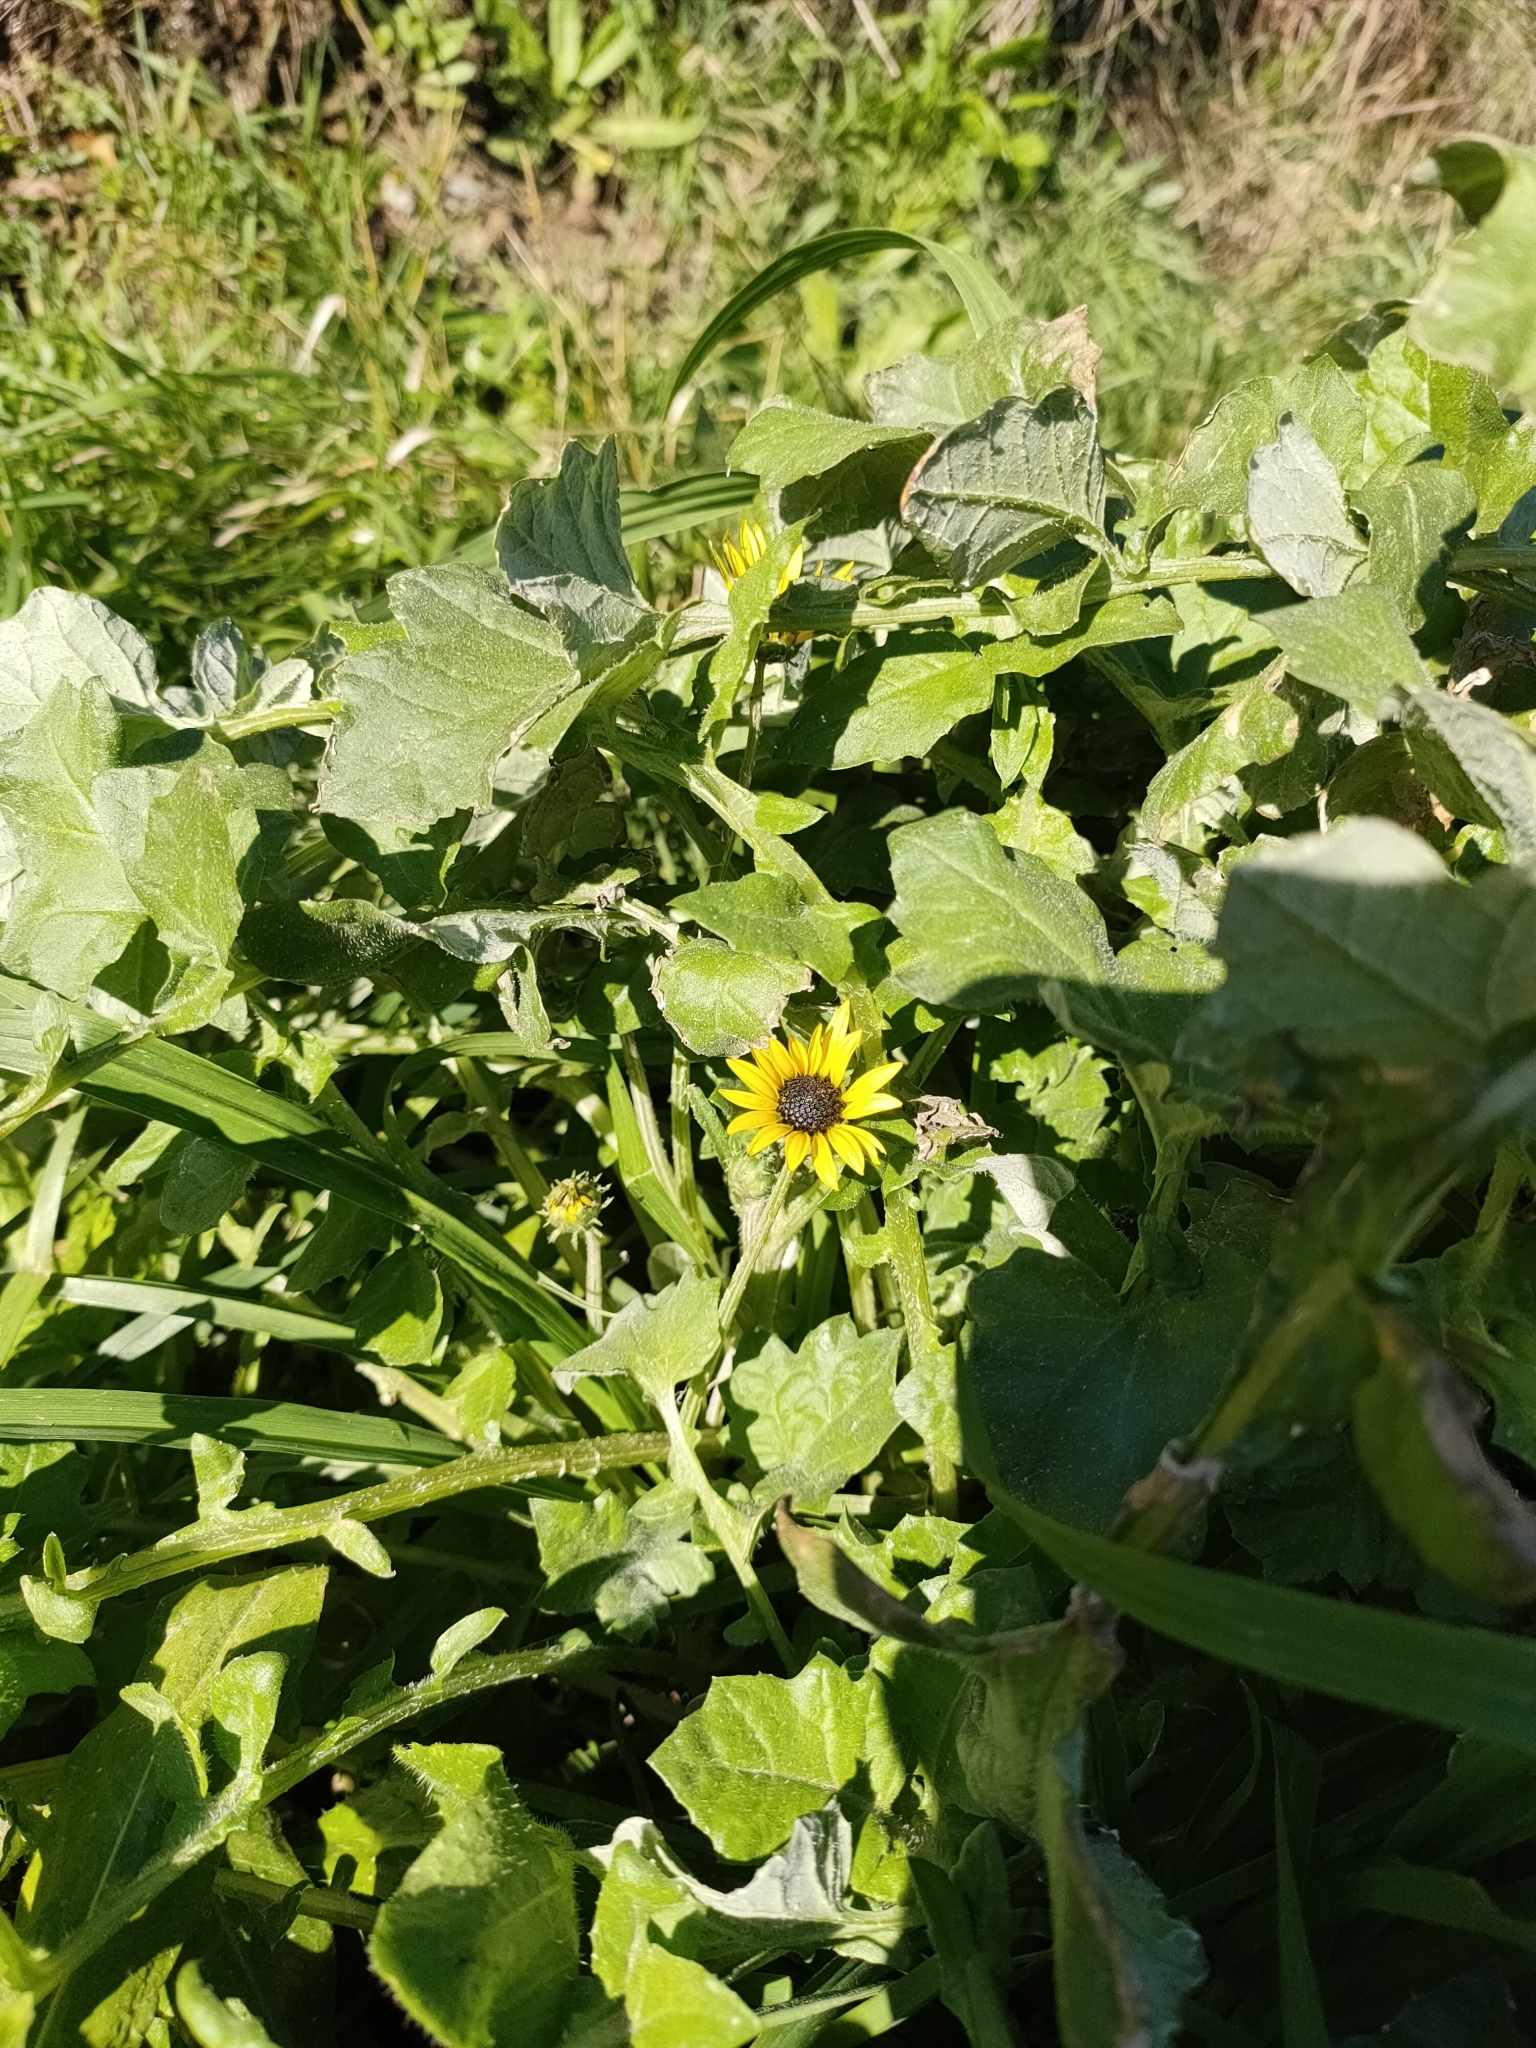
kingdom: Plantae
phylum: Tracheophyta
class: Magnoliopsida
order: Asterales
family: Asteraceae
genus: Arctotheca
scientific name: Arctotheca calendula
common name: Capeweed
